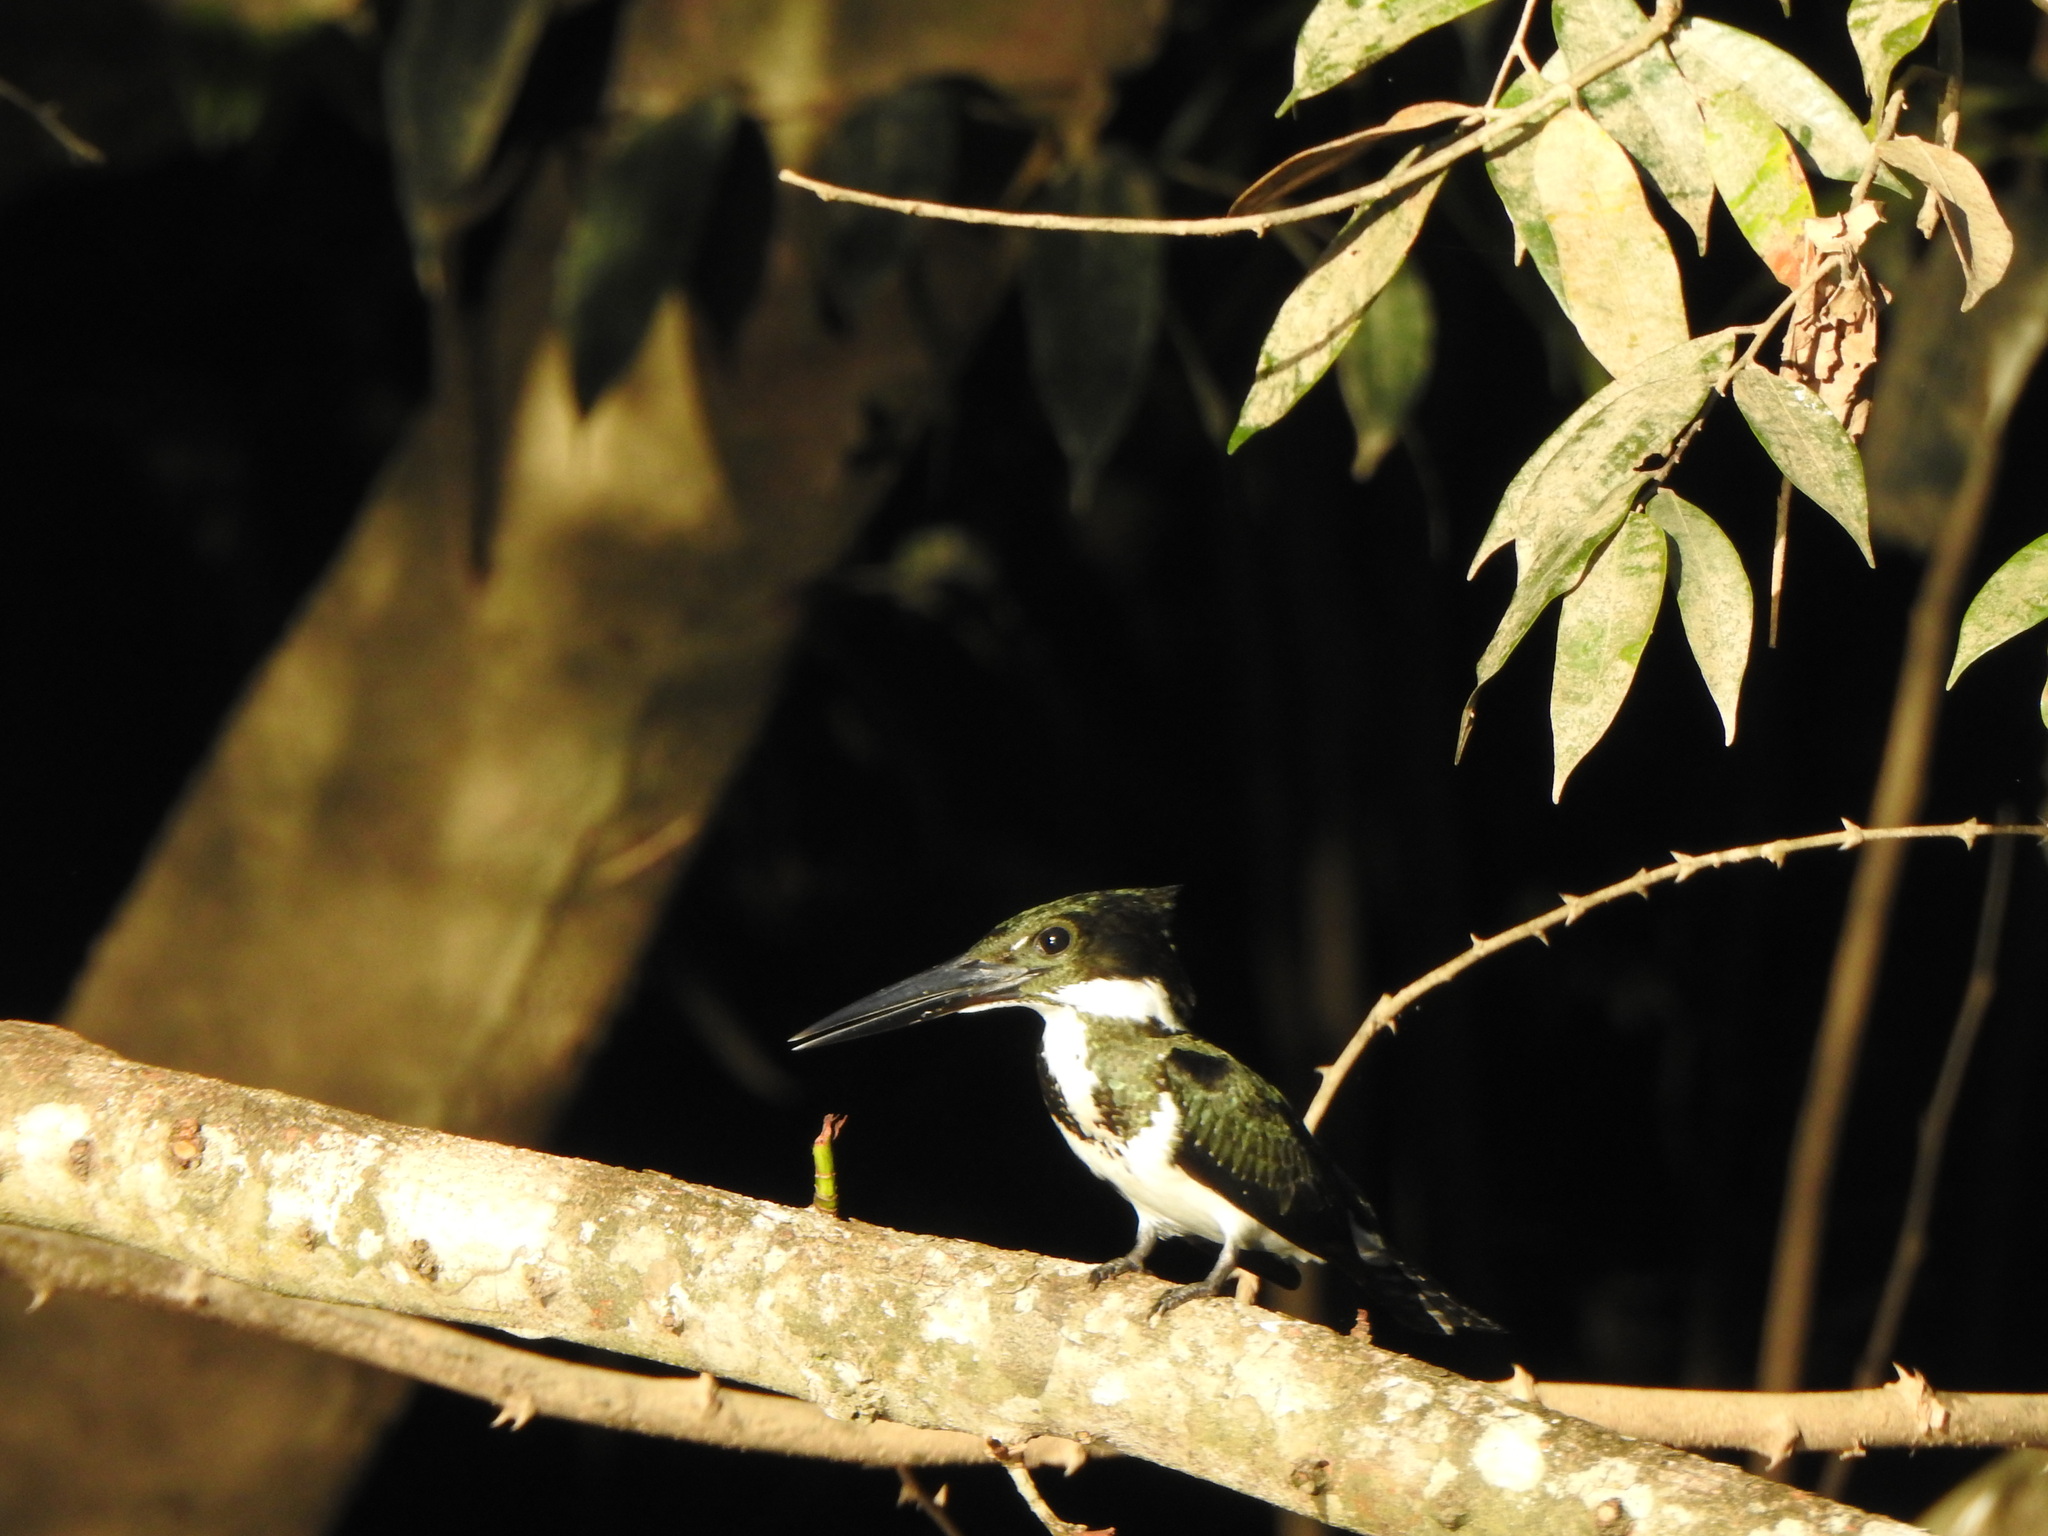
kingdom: Animalia
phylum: Chordata
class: Aves
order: Coraciiformes
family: Alcedinidae
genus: Chloroceryle
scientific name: Chloroceryle amazona
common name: Amazon kingfisher
